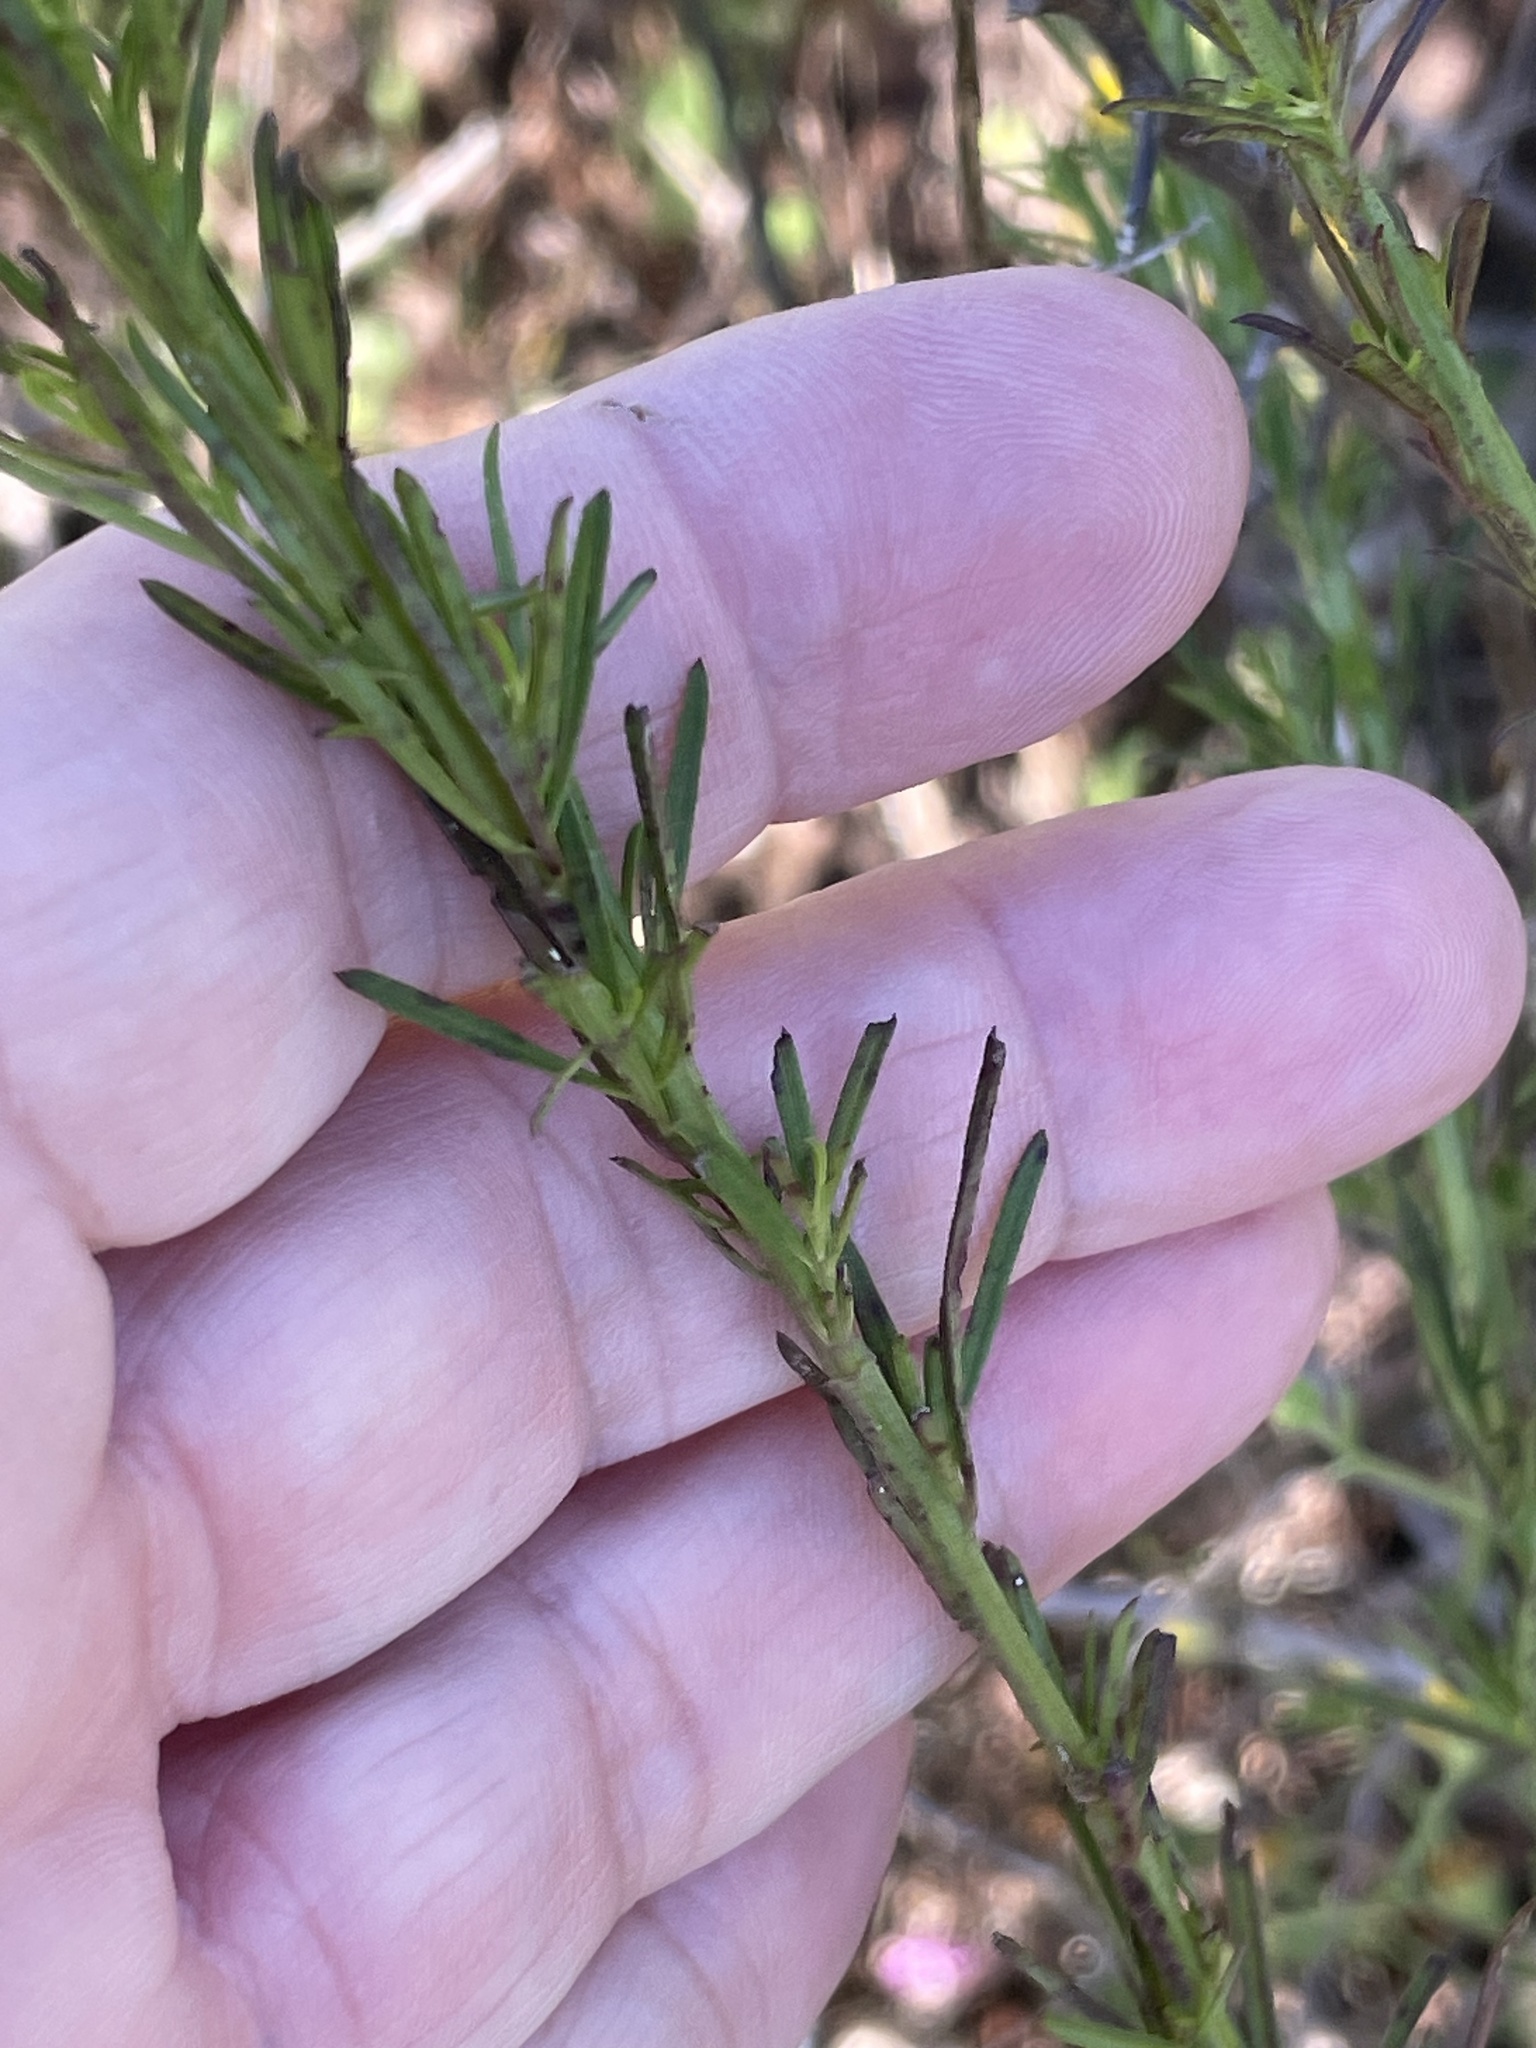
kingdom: Plantae
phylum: Tracheophyta
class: Magnoliopsida
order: Lamiales
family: Orobanchaceae
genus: Agalinis
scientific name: Agalinis fasciculata
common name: Beach false foxglove
